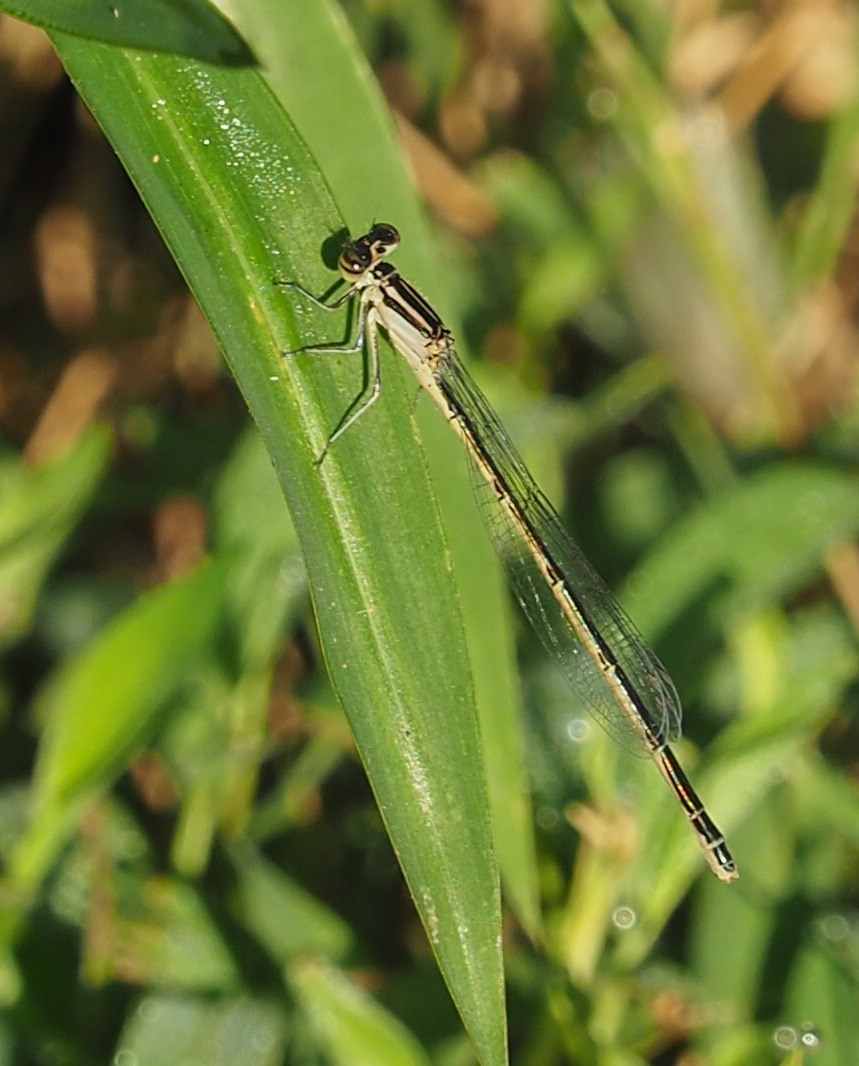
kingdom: Animalia
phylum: Arthropoda
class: Insecta
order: Odonata
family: Coenagrionidae
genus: Enallagma
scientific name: Enallagma durum
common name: Big bluet
